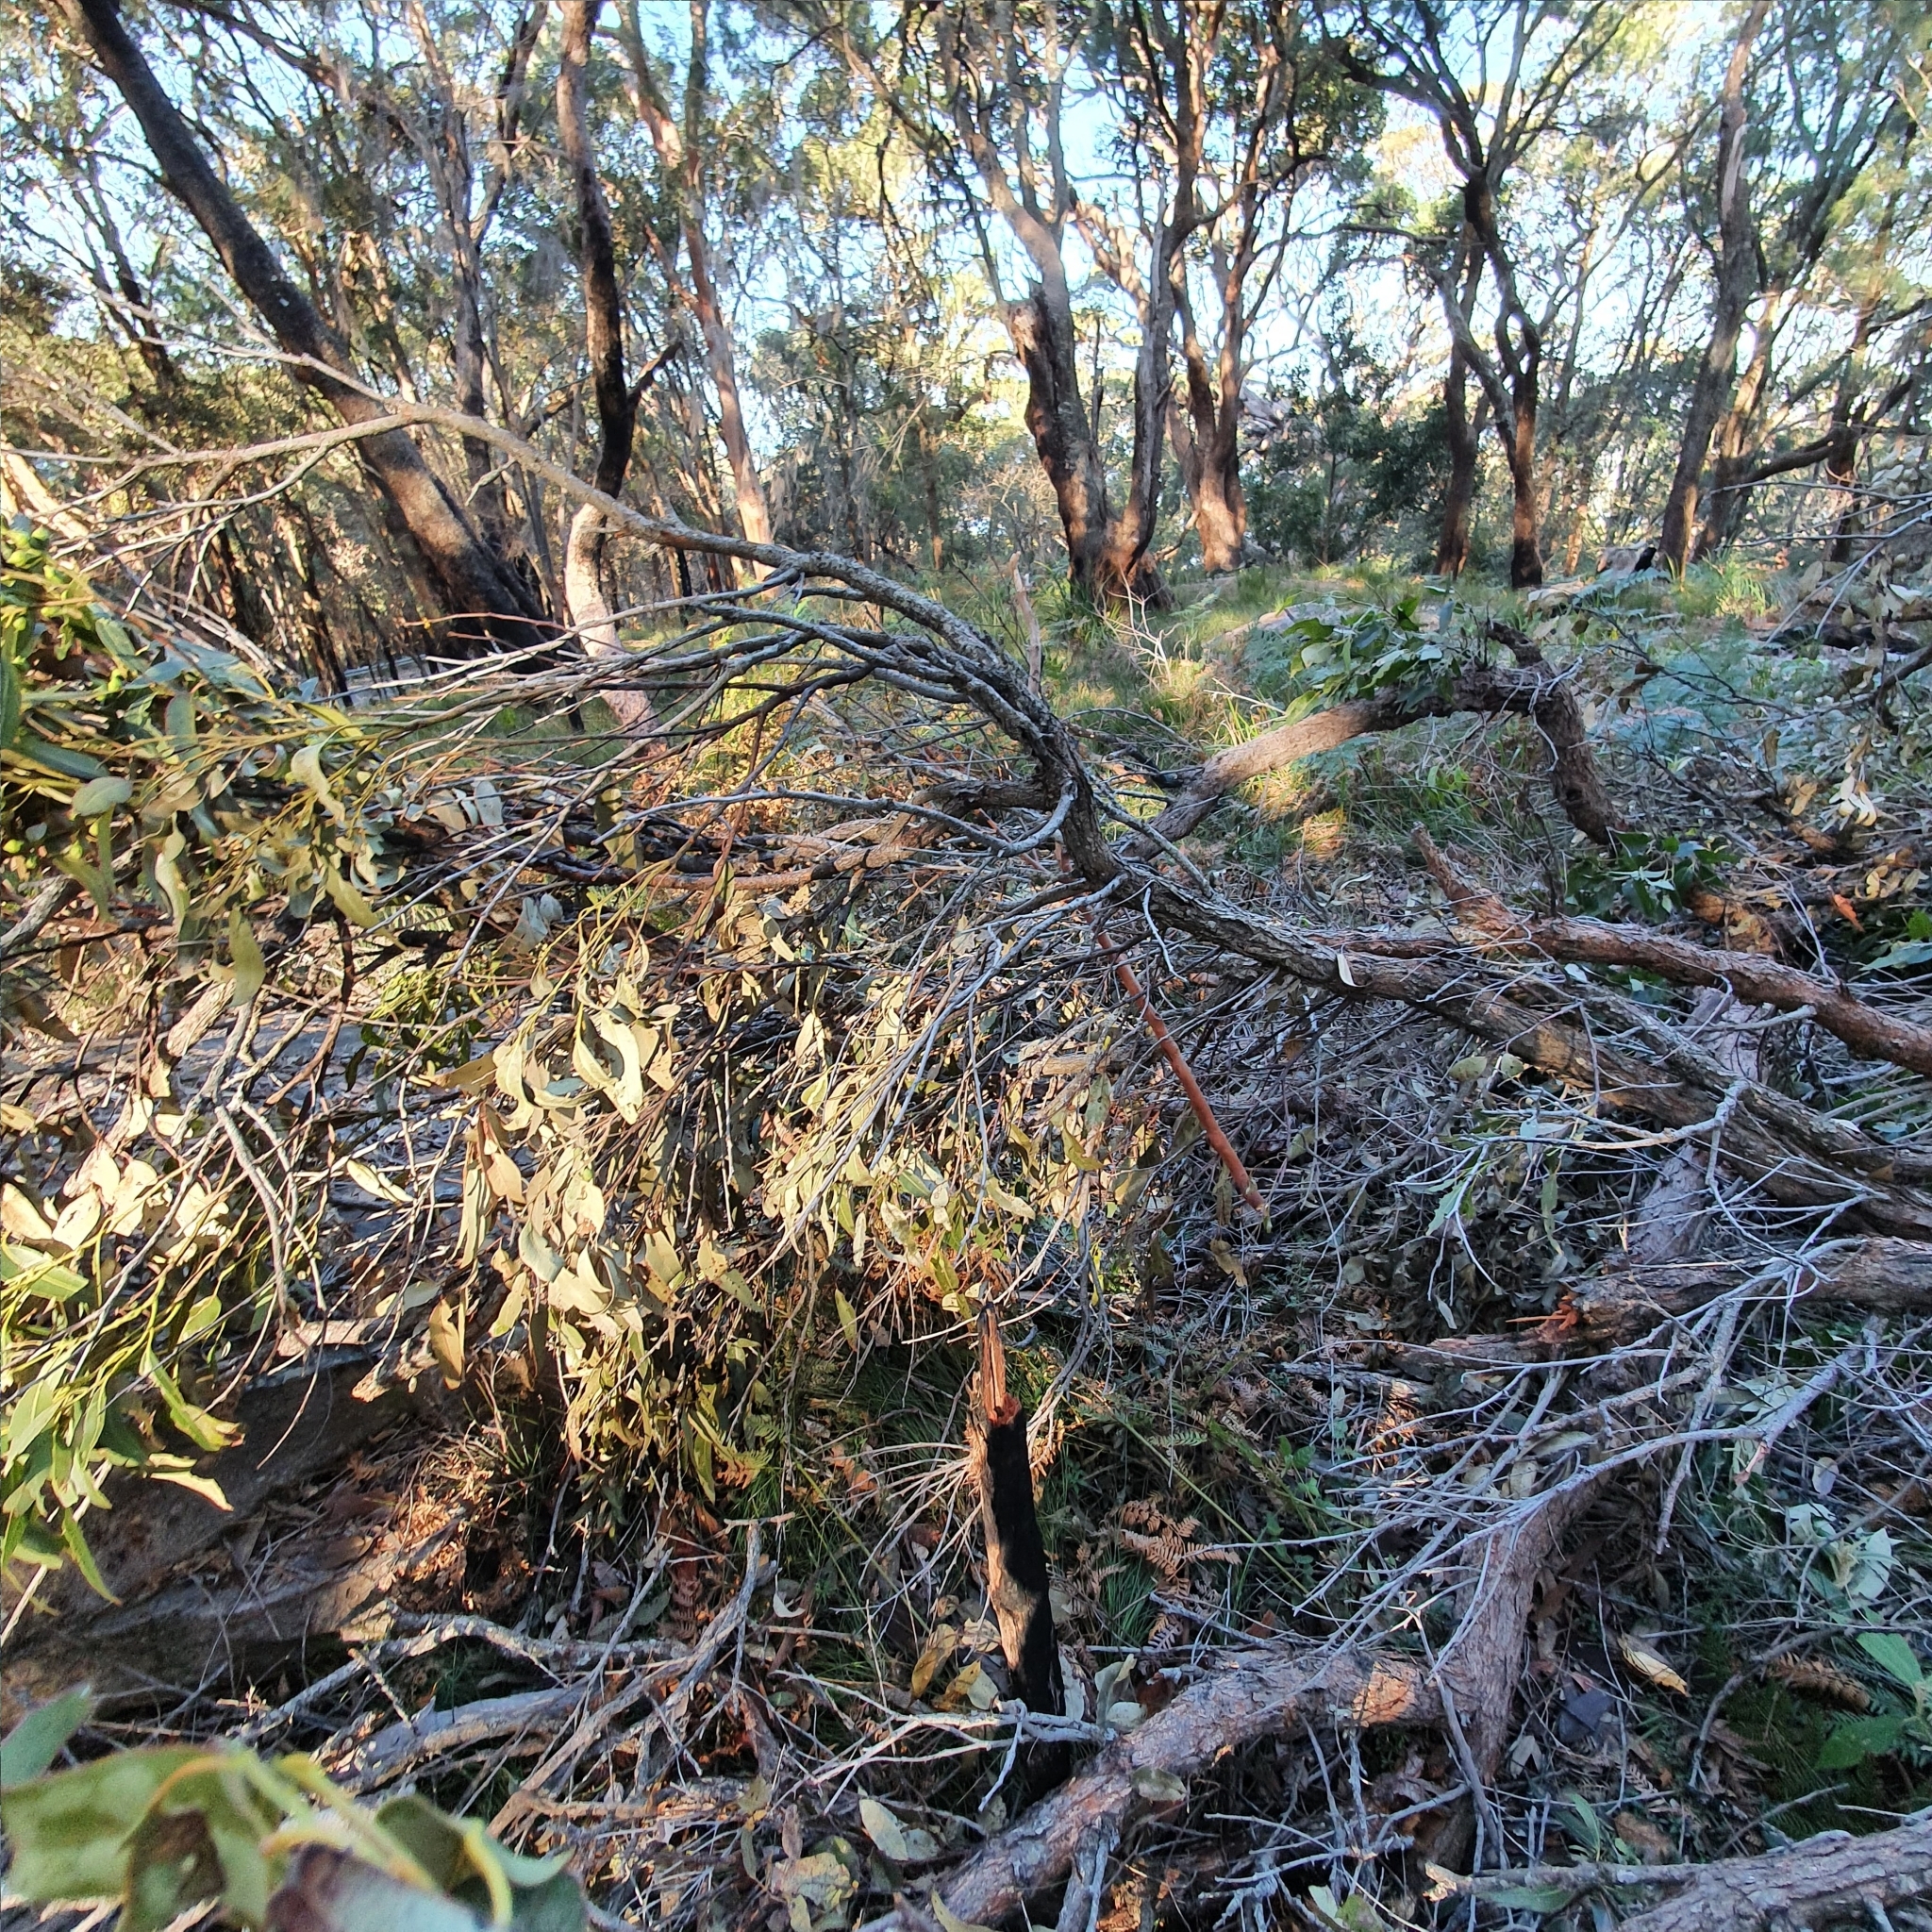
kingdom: Plantae
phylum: Tracheophyta
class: Magnoliopsida
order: Myrtales
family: Myrtaceae
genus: Eucalyptus
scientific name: Eucalyptus scias
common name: Red mahogany
